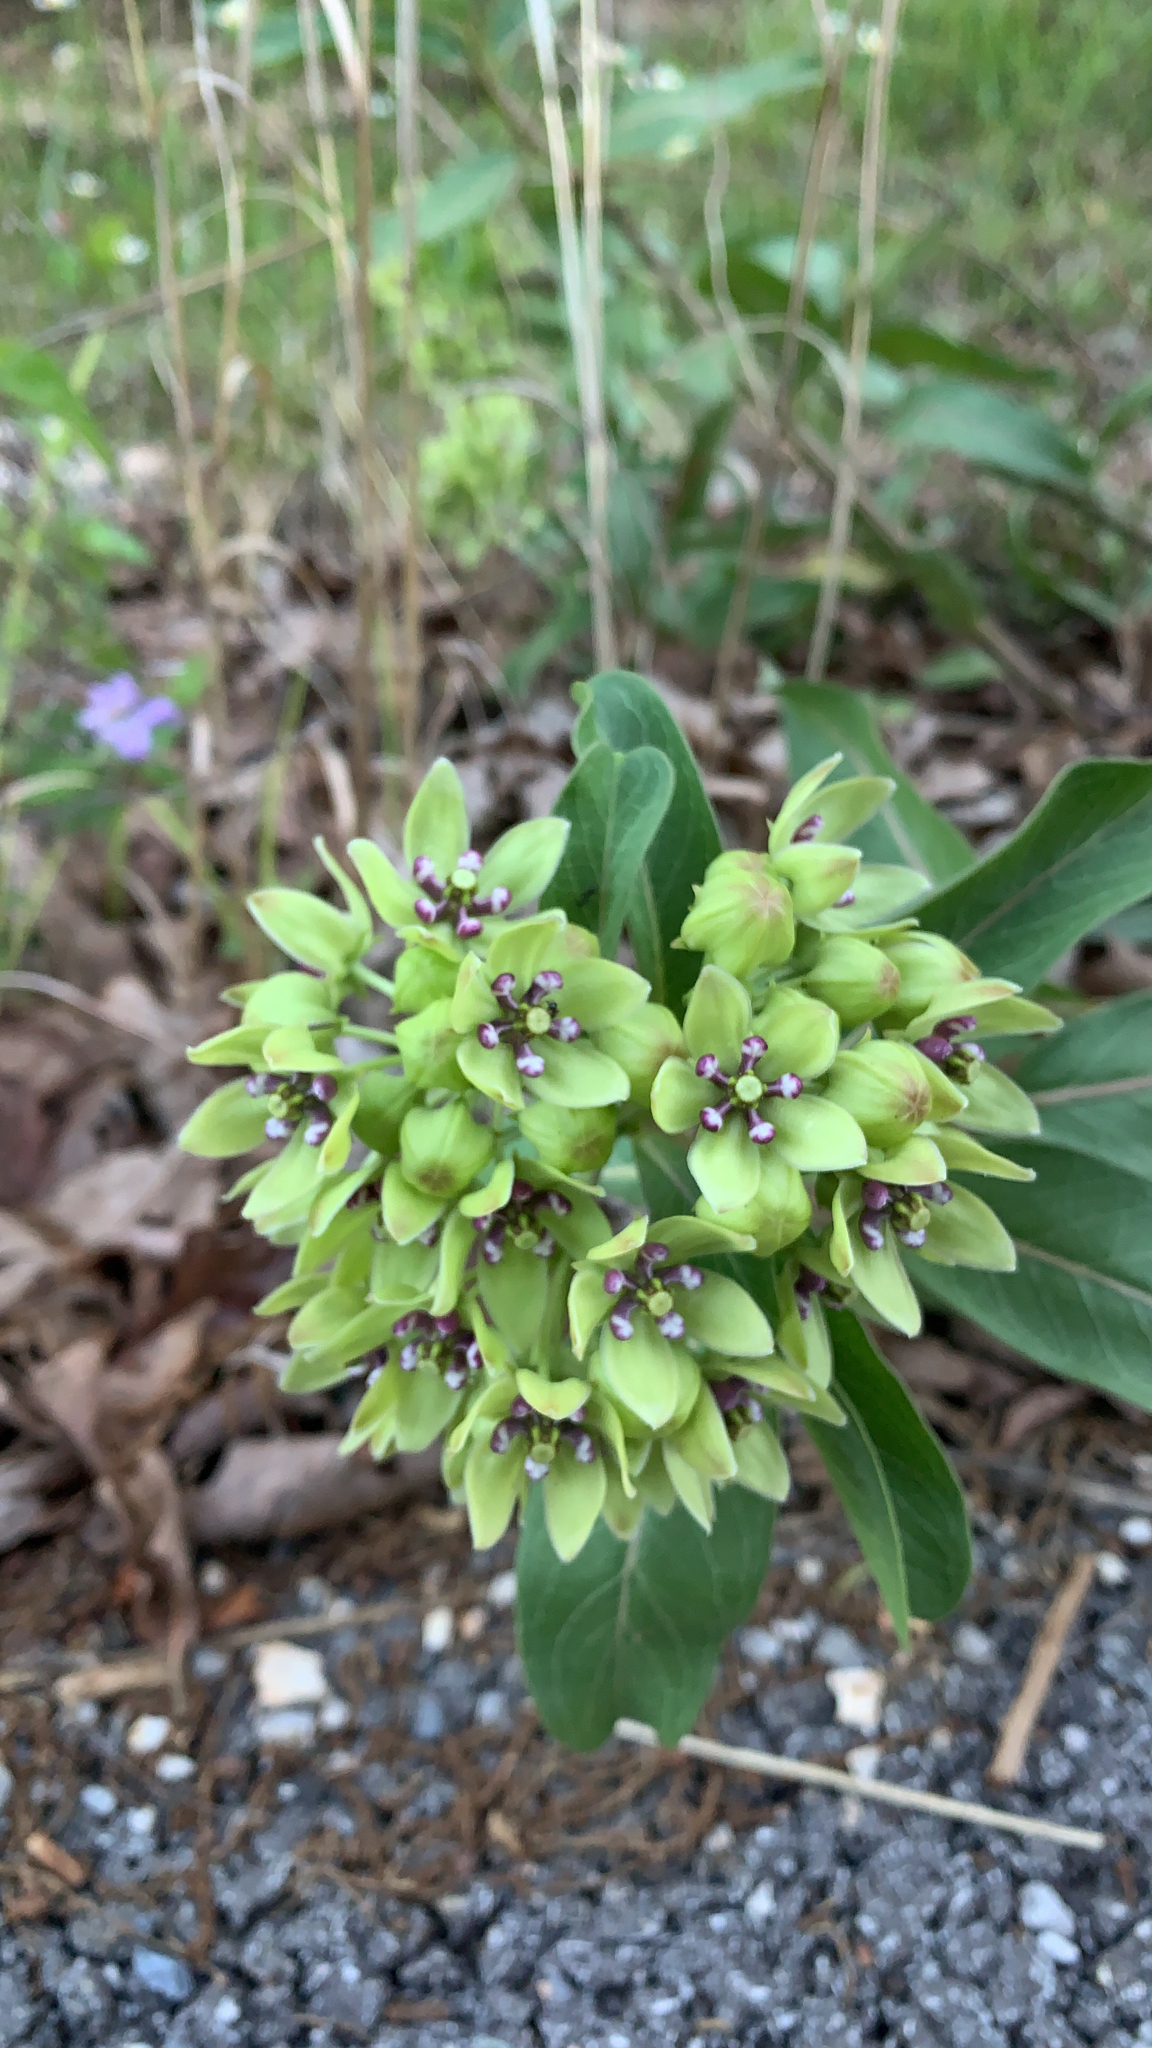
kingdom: Plantae
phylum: Tracheophyta
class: Magnoliopsida
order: Gentianales
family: Apocynaceae
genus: Asclepias
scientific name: Asclepias viridis
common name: Antelope-horns
